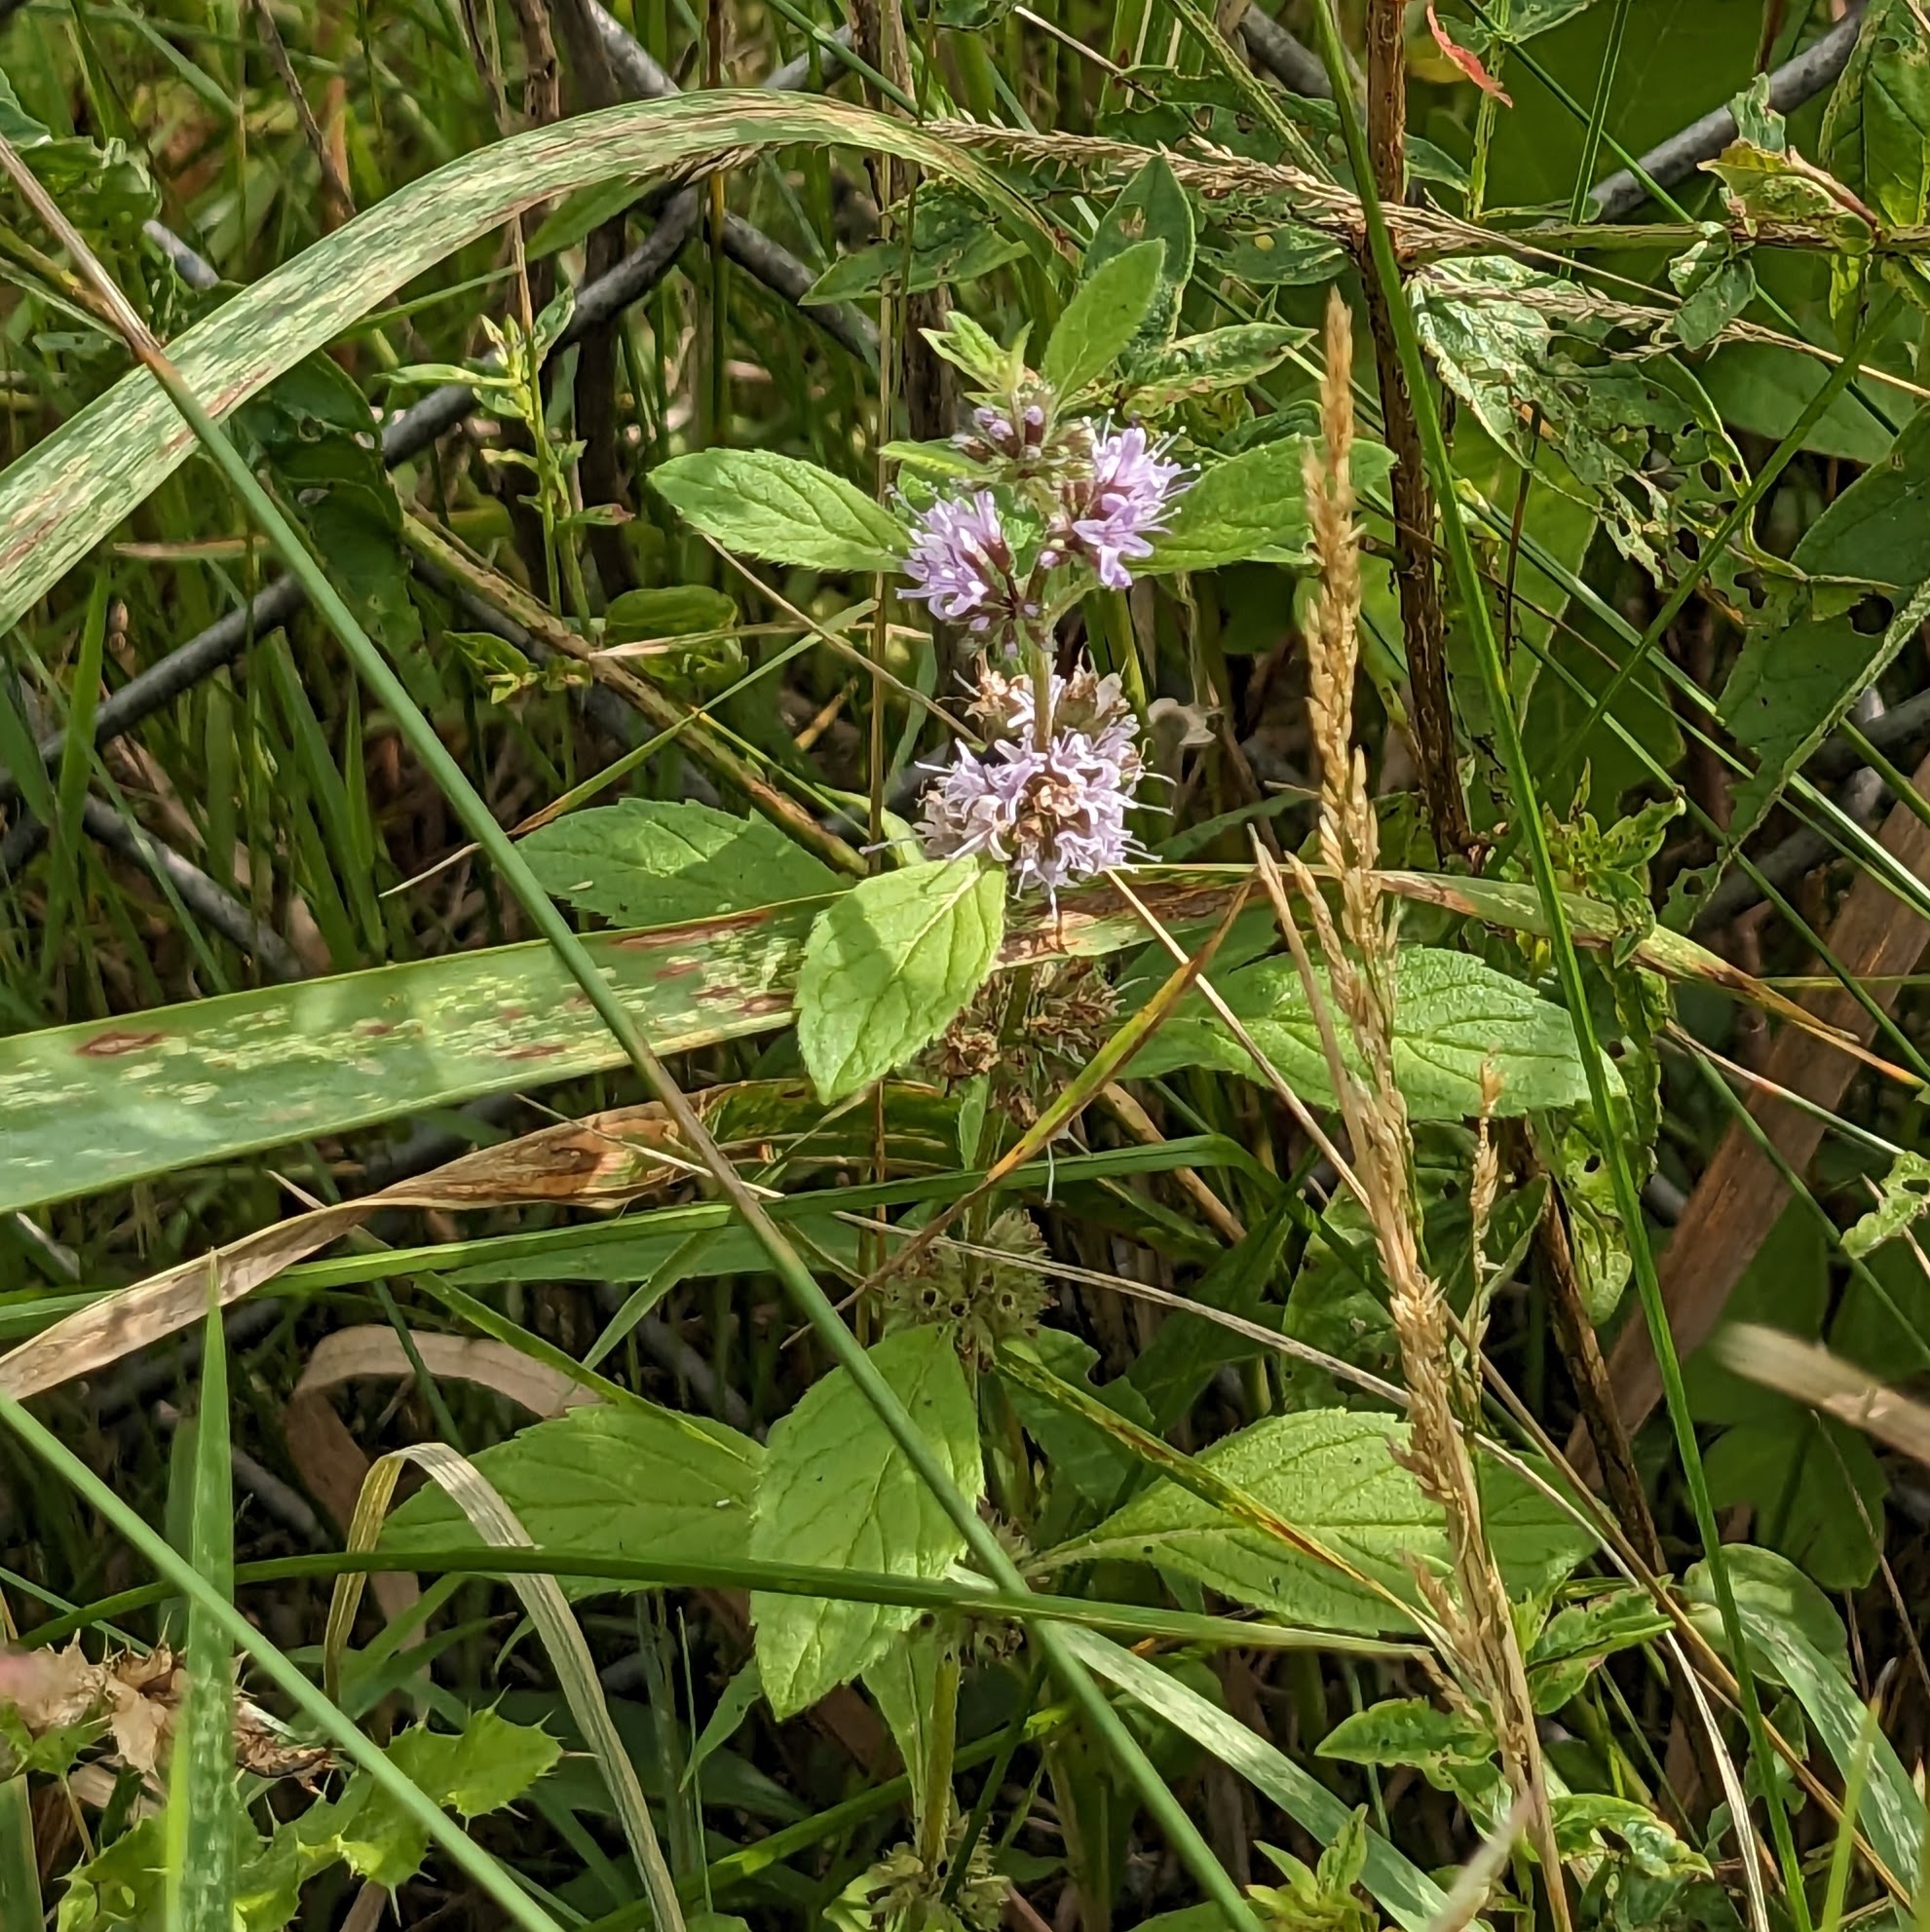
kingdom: Plantae
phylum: Tracheophyta
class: Magnoliopsida
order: Lamiales
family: Lamiaceae
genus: Mentha
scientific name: Mentha canadensis
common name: American corn mint
